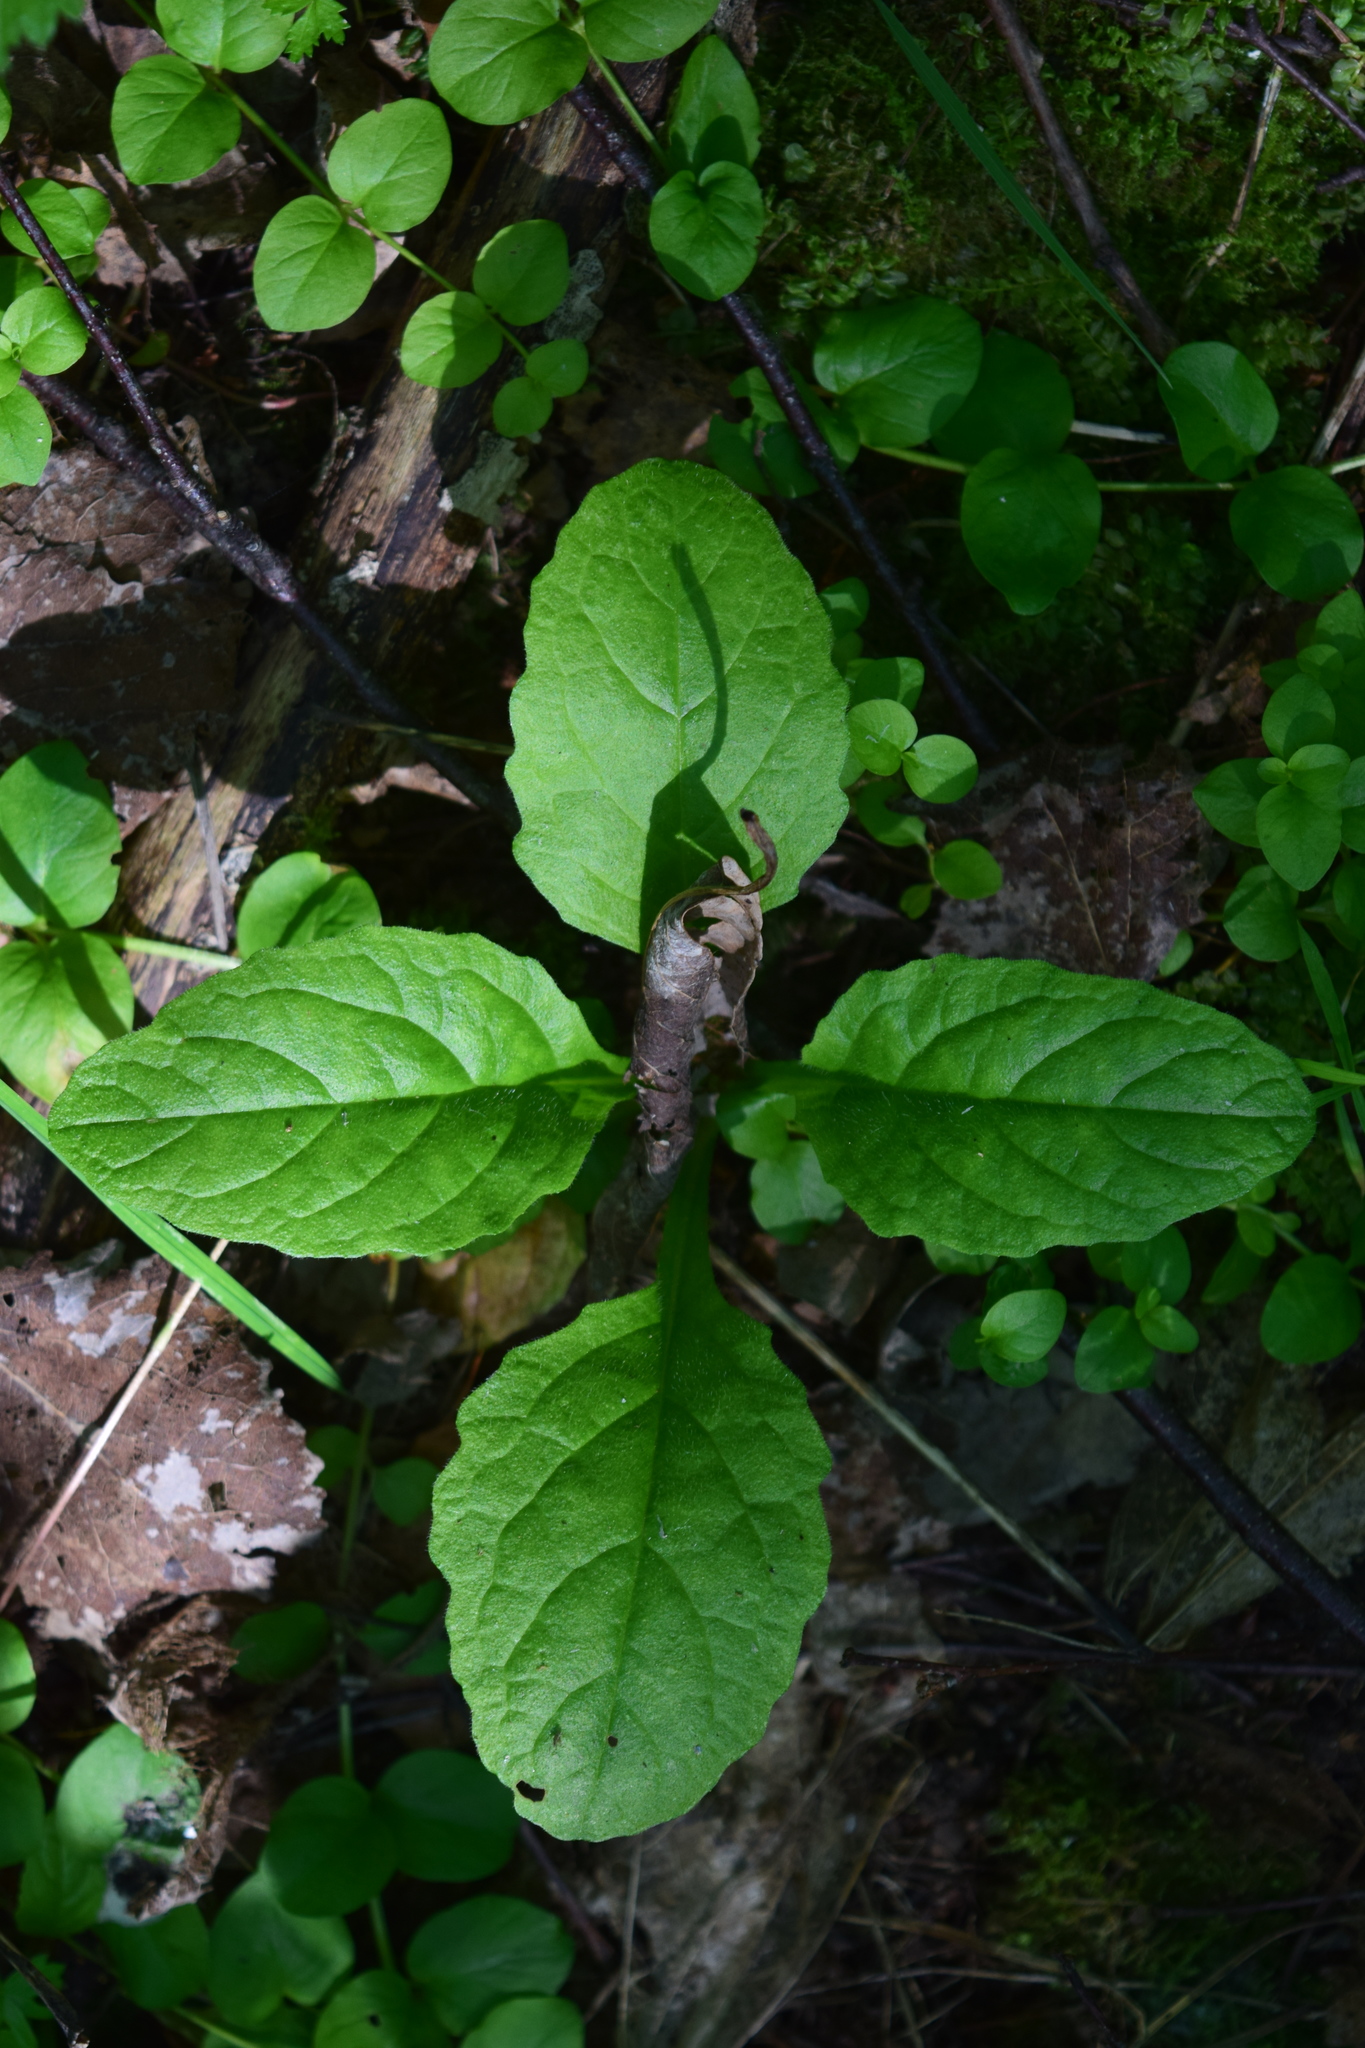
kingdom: Plantae
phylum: Tracheophyta
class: Magnoliopsida
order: Lamiales
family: Lamiaceae
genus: Ajuga
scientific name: Ajuga reptans
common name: Bugle
